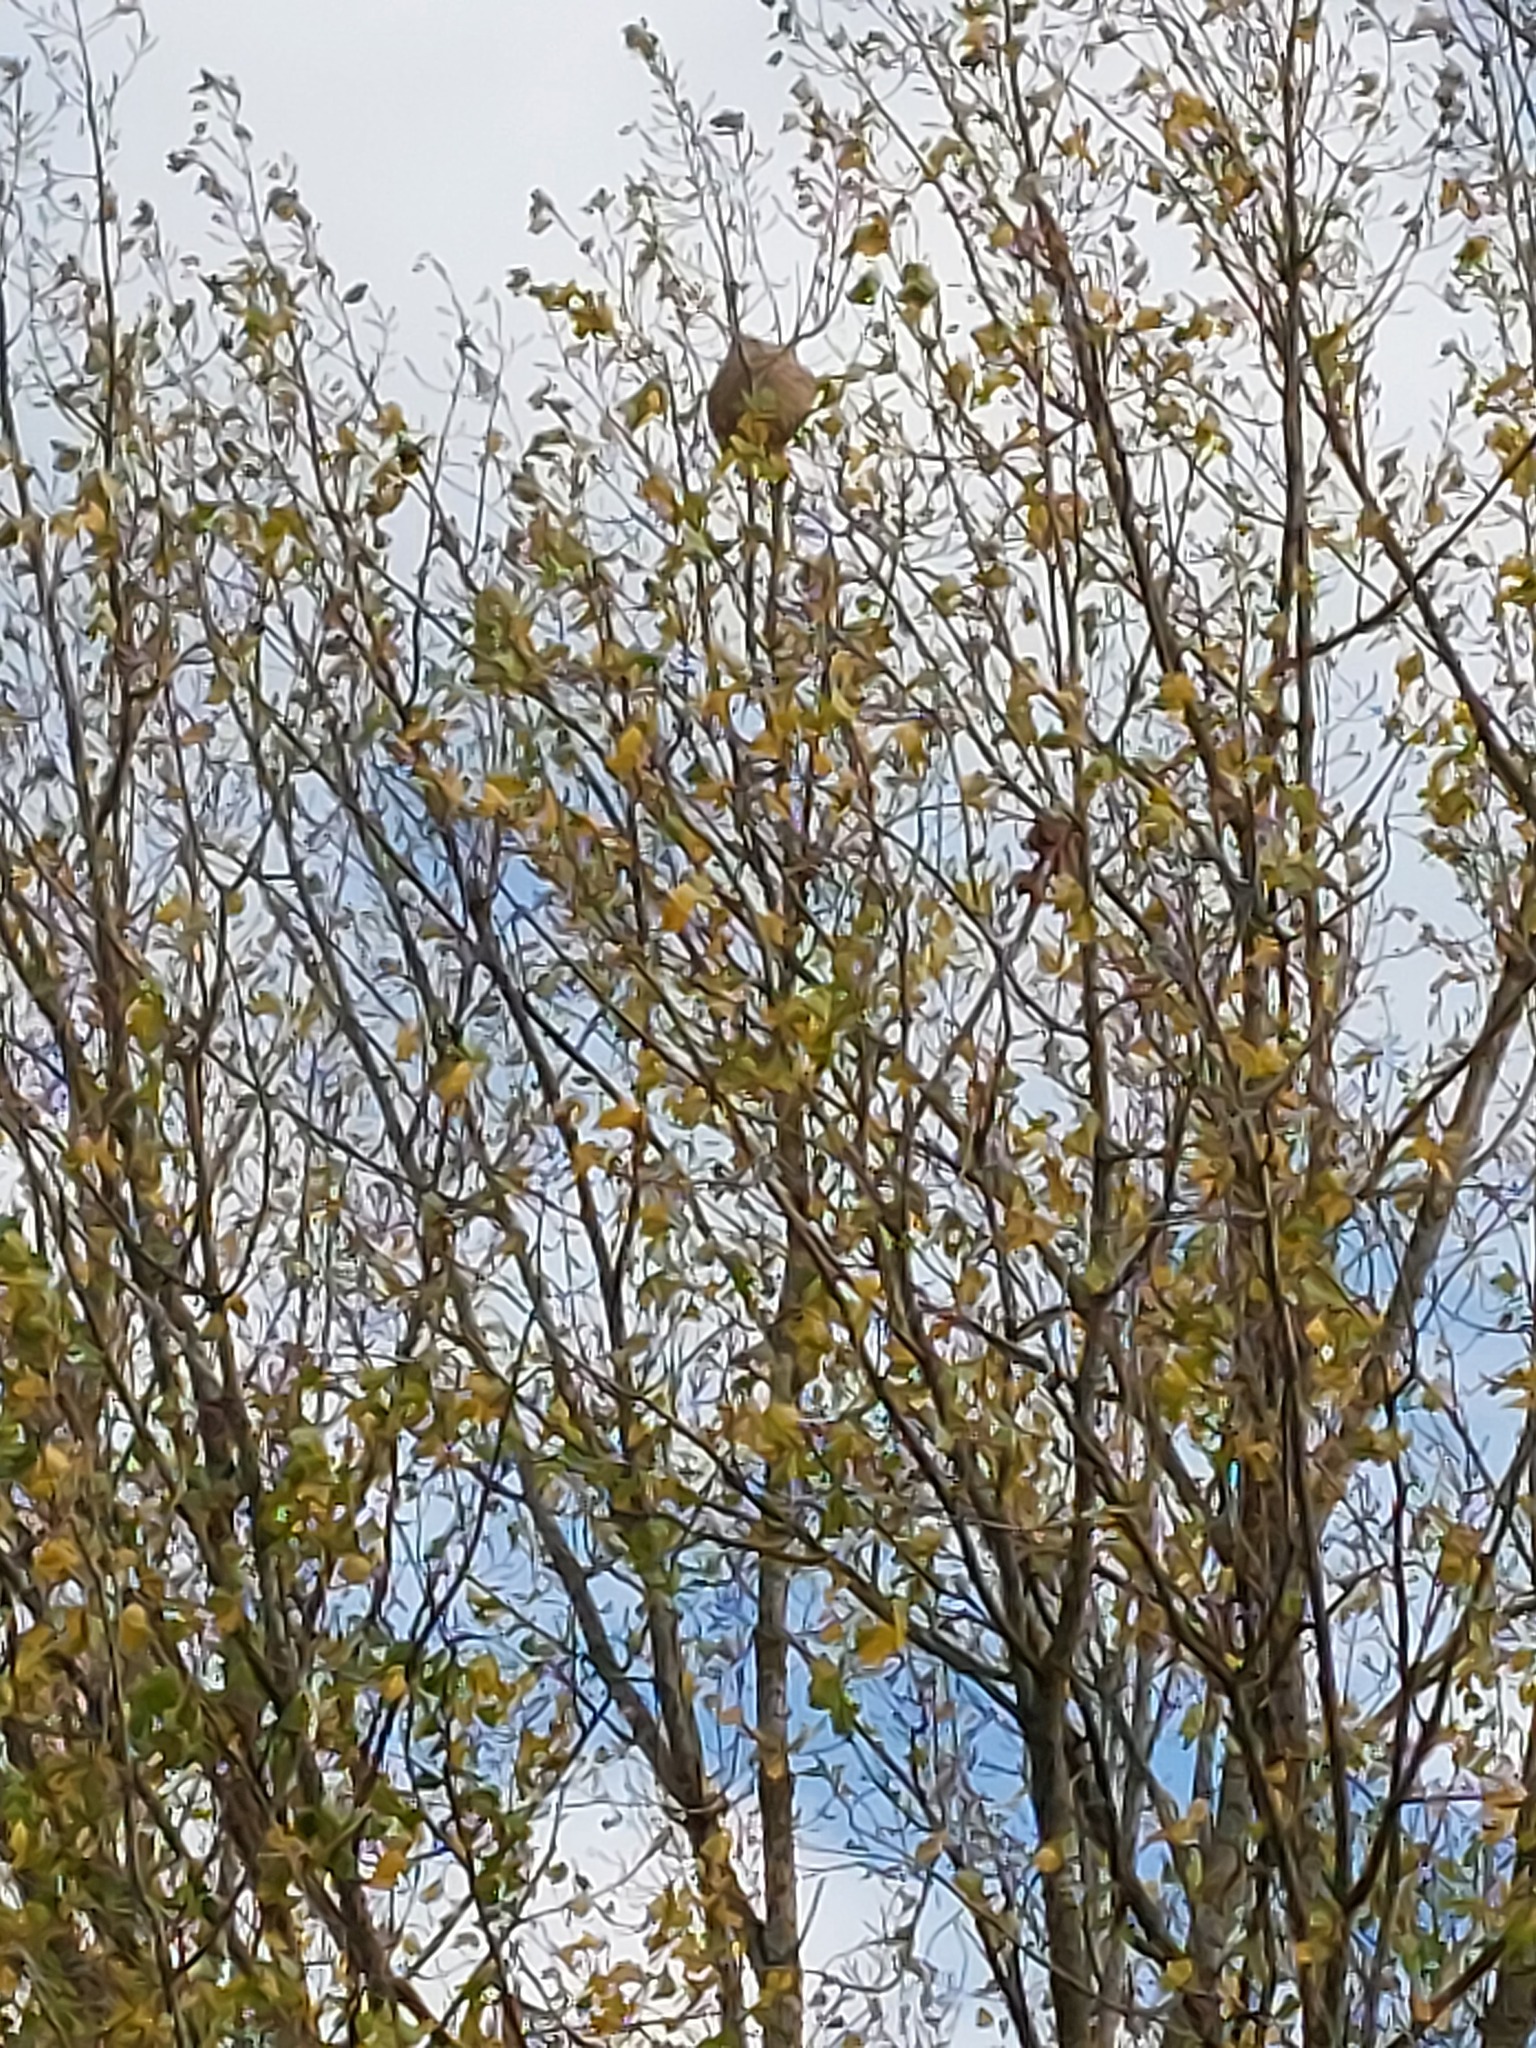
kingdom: Animalia
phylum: Arthropoda
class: Insecta
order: Hymenoptera
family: Vespidae
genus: Vespa
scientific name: Vespa velutina
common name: Asian hornet
